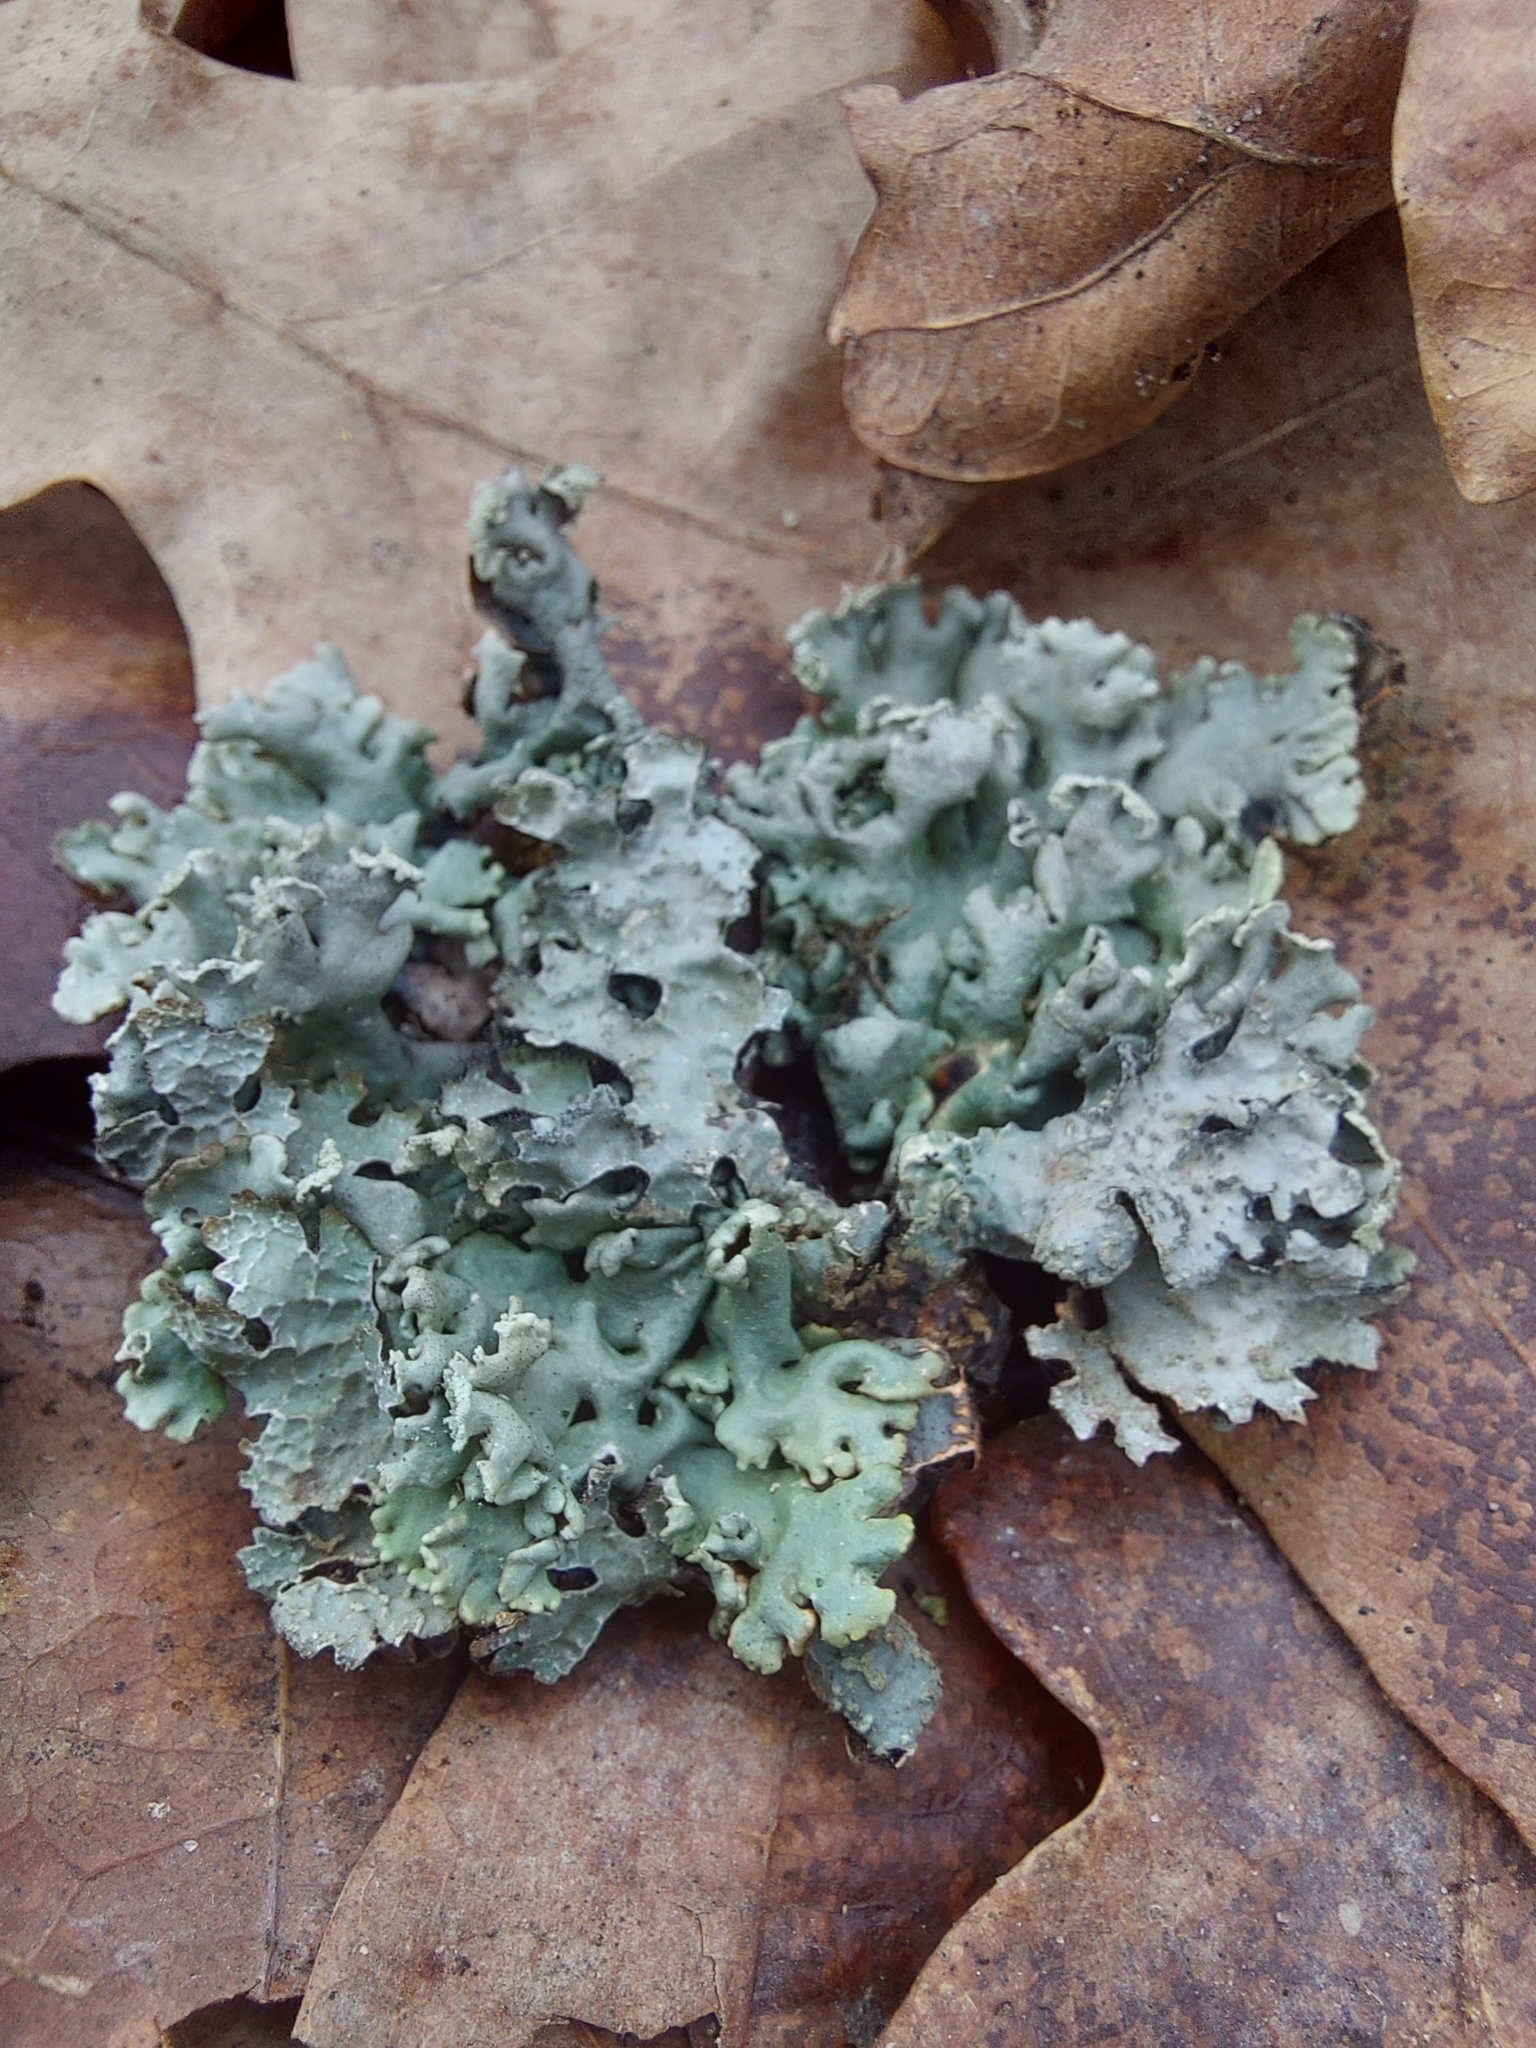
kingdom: Fungi
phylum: Ascomycota
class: Lecanoromycetes
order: Lecanorales
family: Parmeliaceae
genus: Hypogymnia
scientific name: Hypogymnia physodes
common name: Dark crottle
